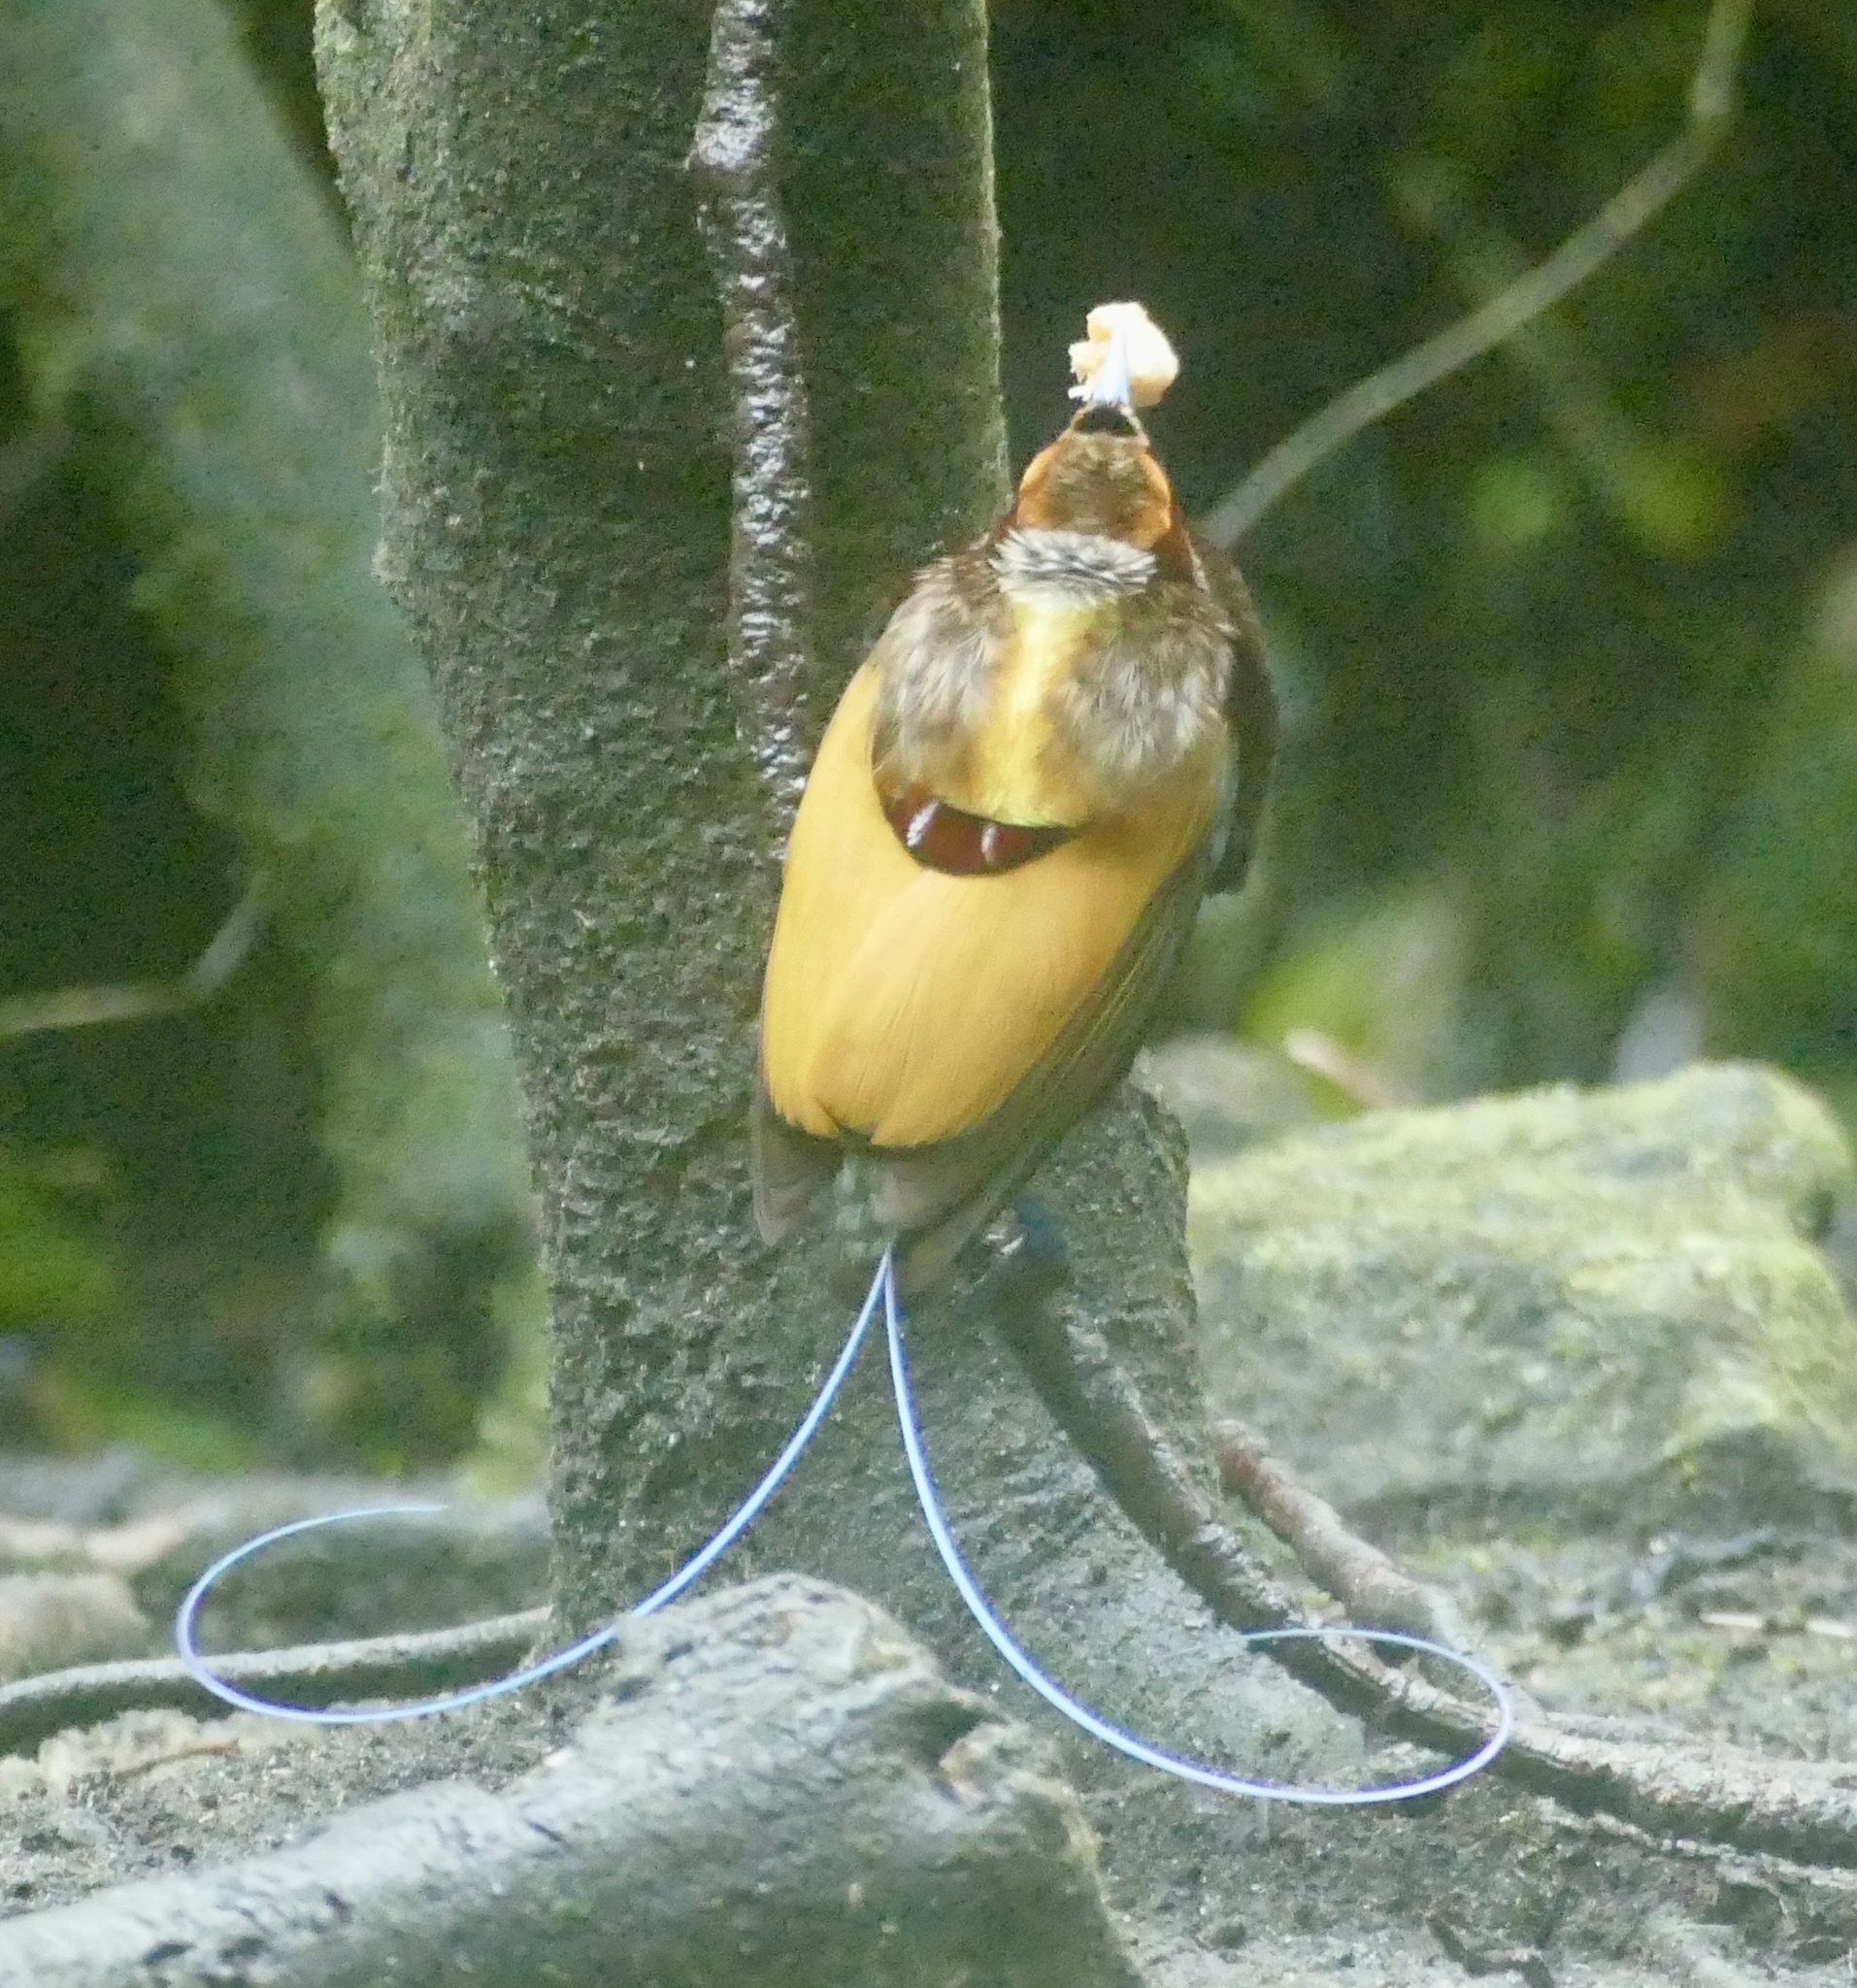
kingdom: Animalia
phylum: Chordata
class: Aves
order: Passeriformes
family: Paradisaeidae
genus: Diphyllodes
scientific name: Diphyllodes magnificus
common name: Magnificent bird-of-paradise
